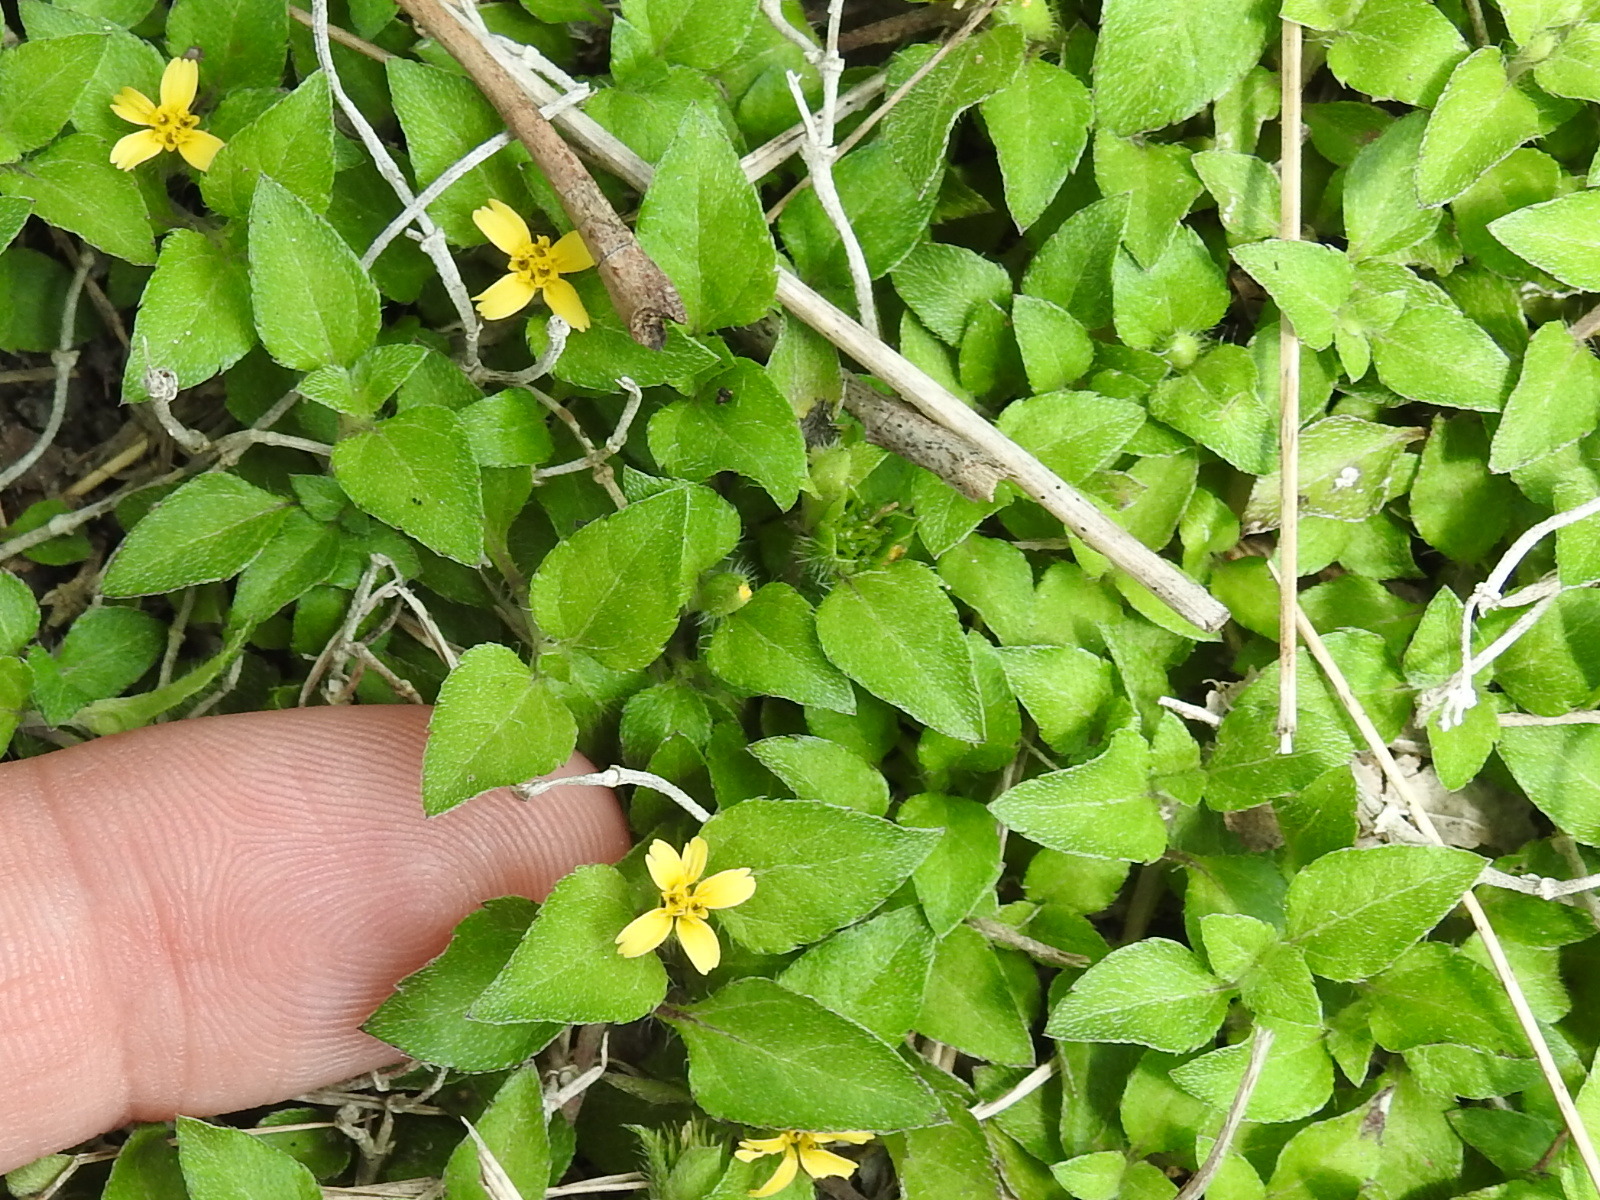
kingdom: Plantae
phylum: Tracheophyta
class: Magnoliopsida
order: Asterales
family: Asteraceae
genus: Calyptocarpus
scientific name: Calyptocarpus vialis
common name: Straggler daisy
